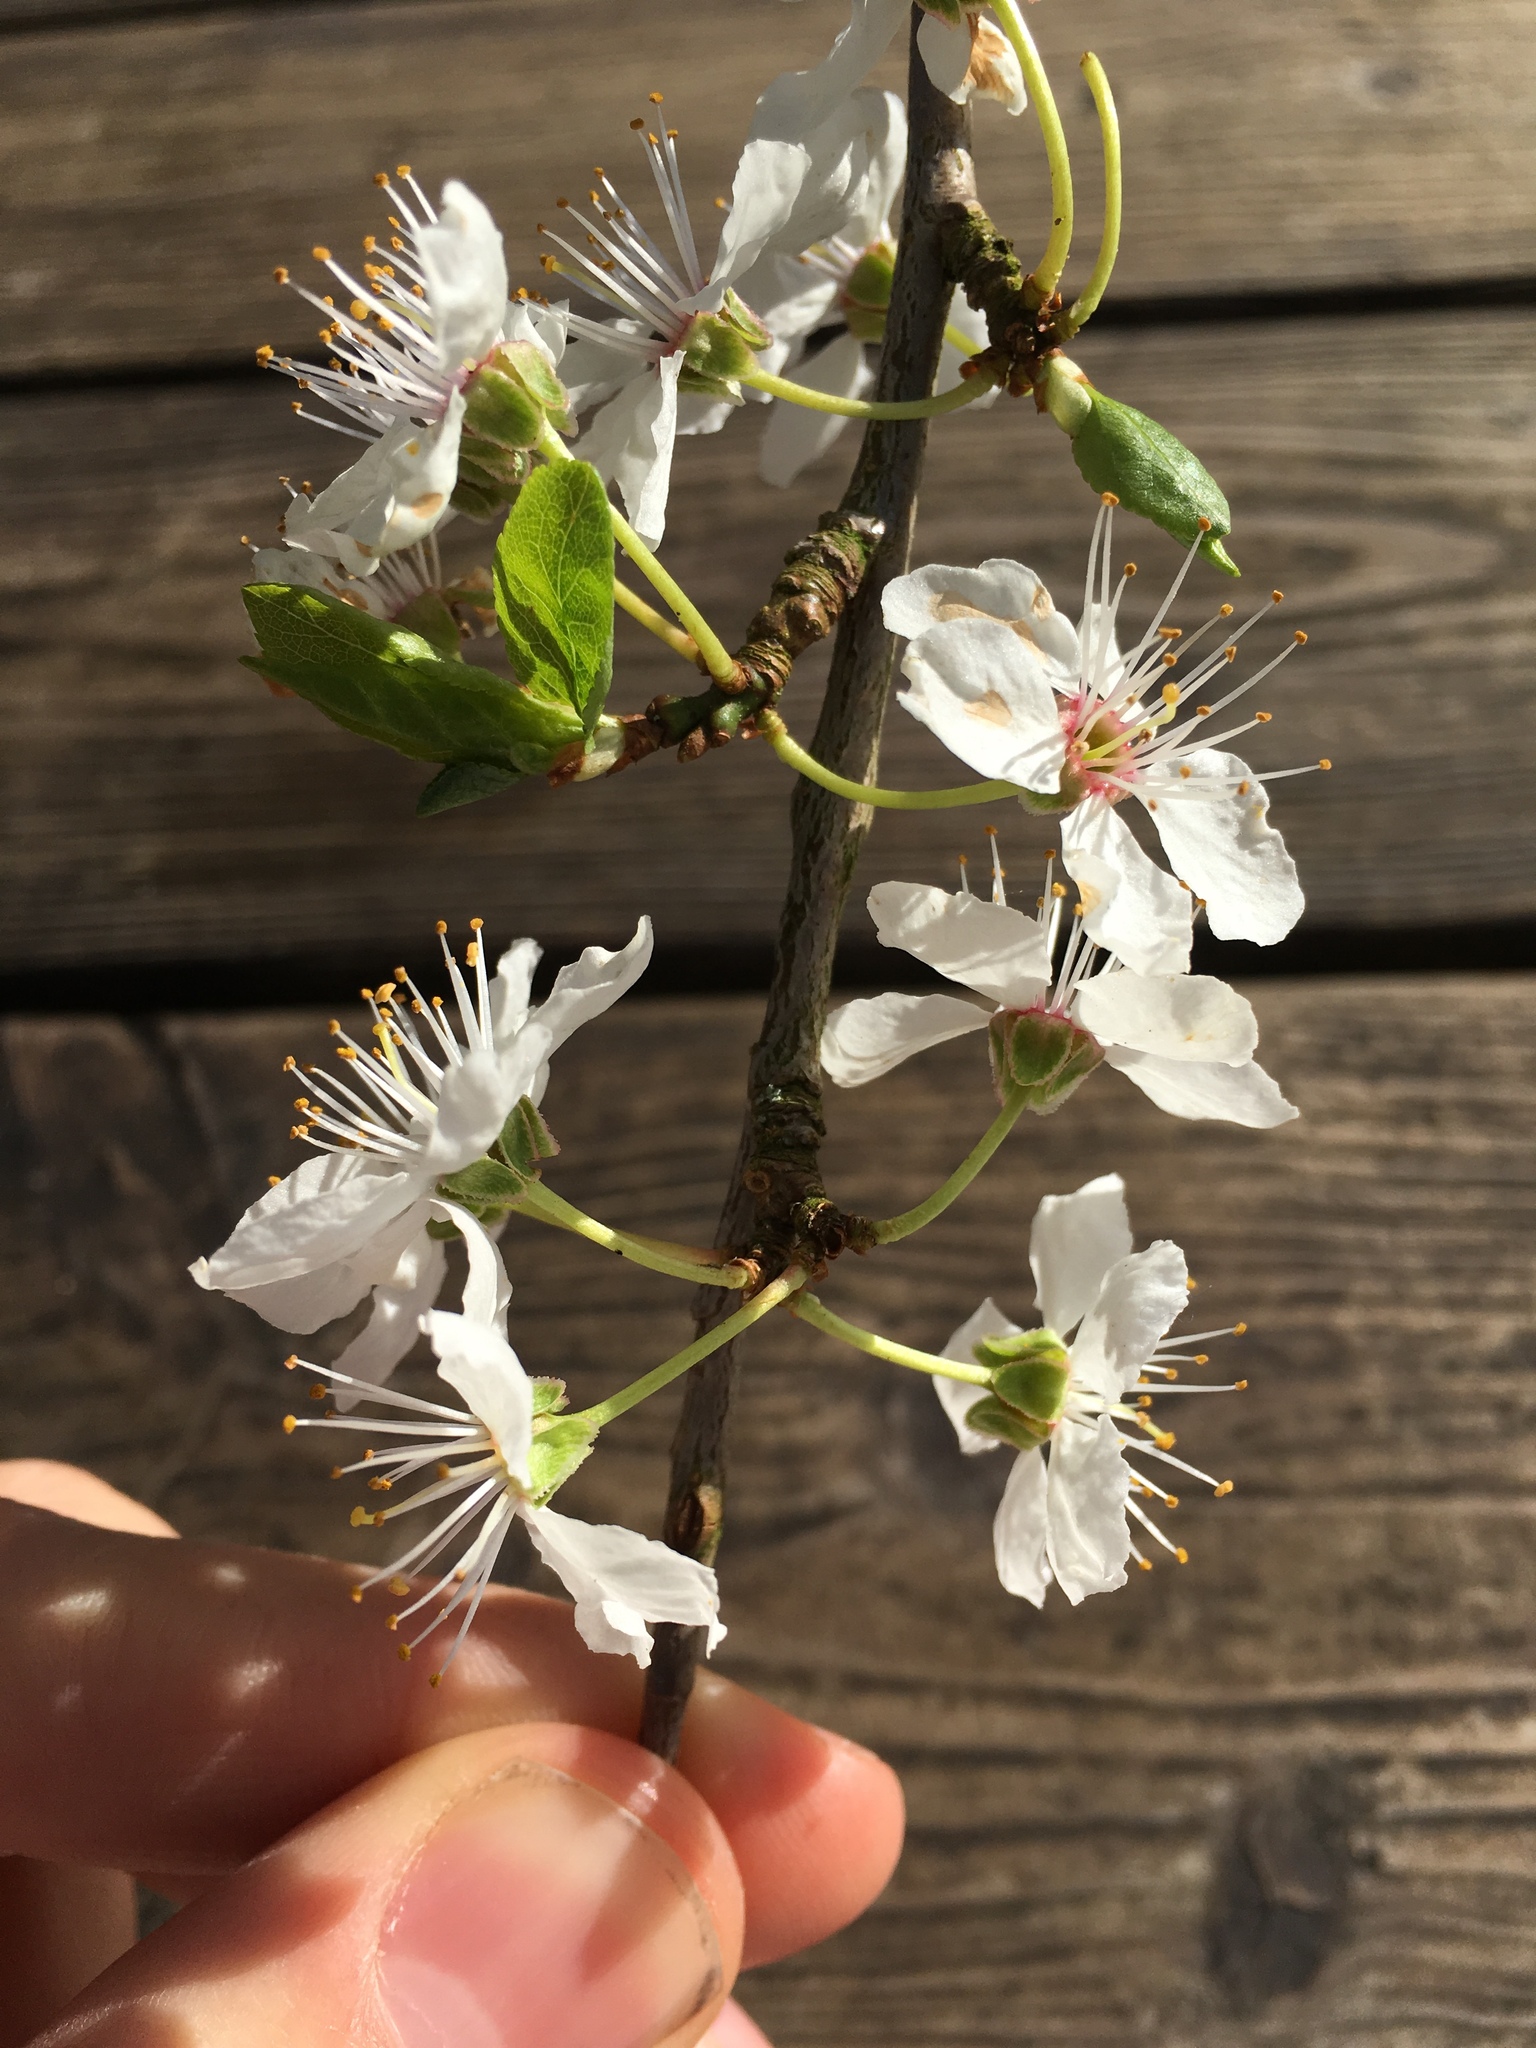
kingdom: Plantae
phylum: Tracheophyta
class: Magnoliopsida
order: Rosales
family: Rosaceae
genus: Prunus
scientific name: Prunus cerasifera
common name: Cherry plum
